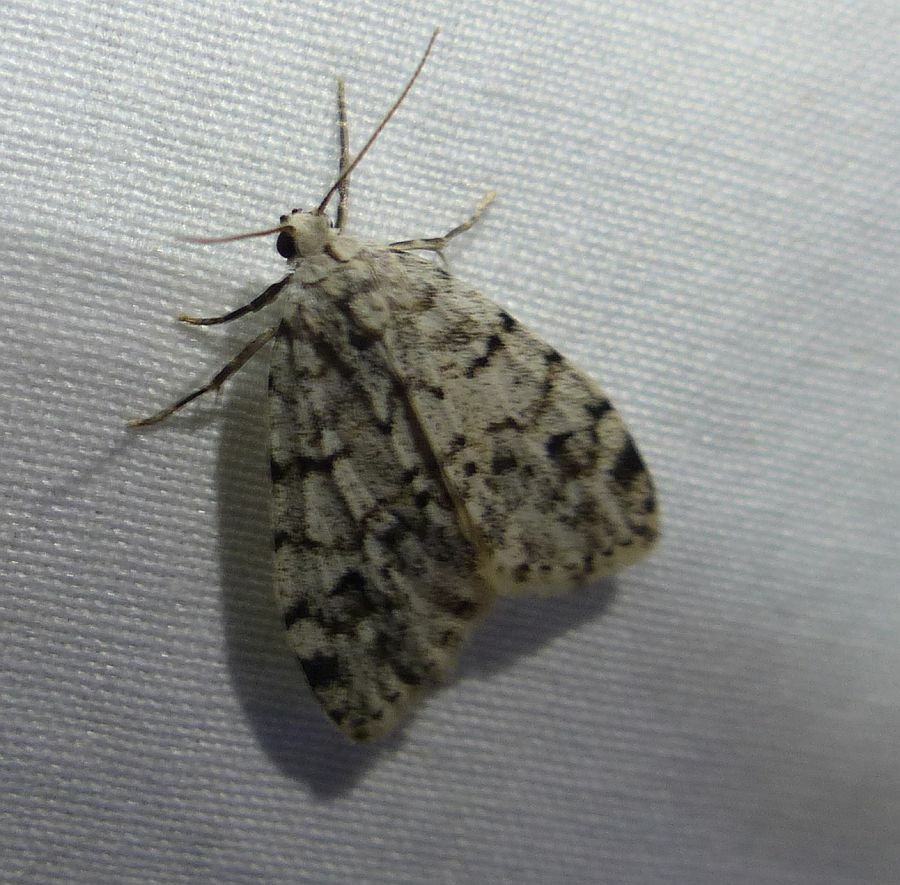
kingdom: Animalia
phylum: Arthropoda
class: Insecta
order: Lepidoptera
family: Erebidae
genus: Clemensia
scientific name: Clemensia albata
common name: Little white lichen moth
